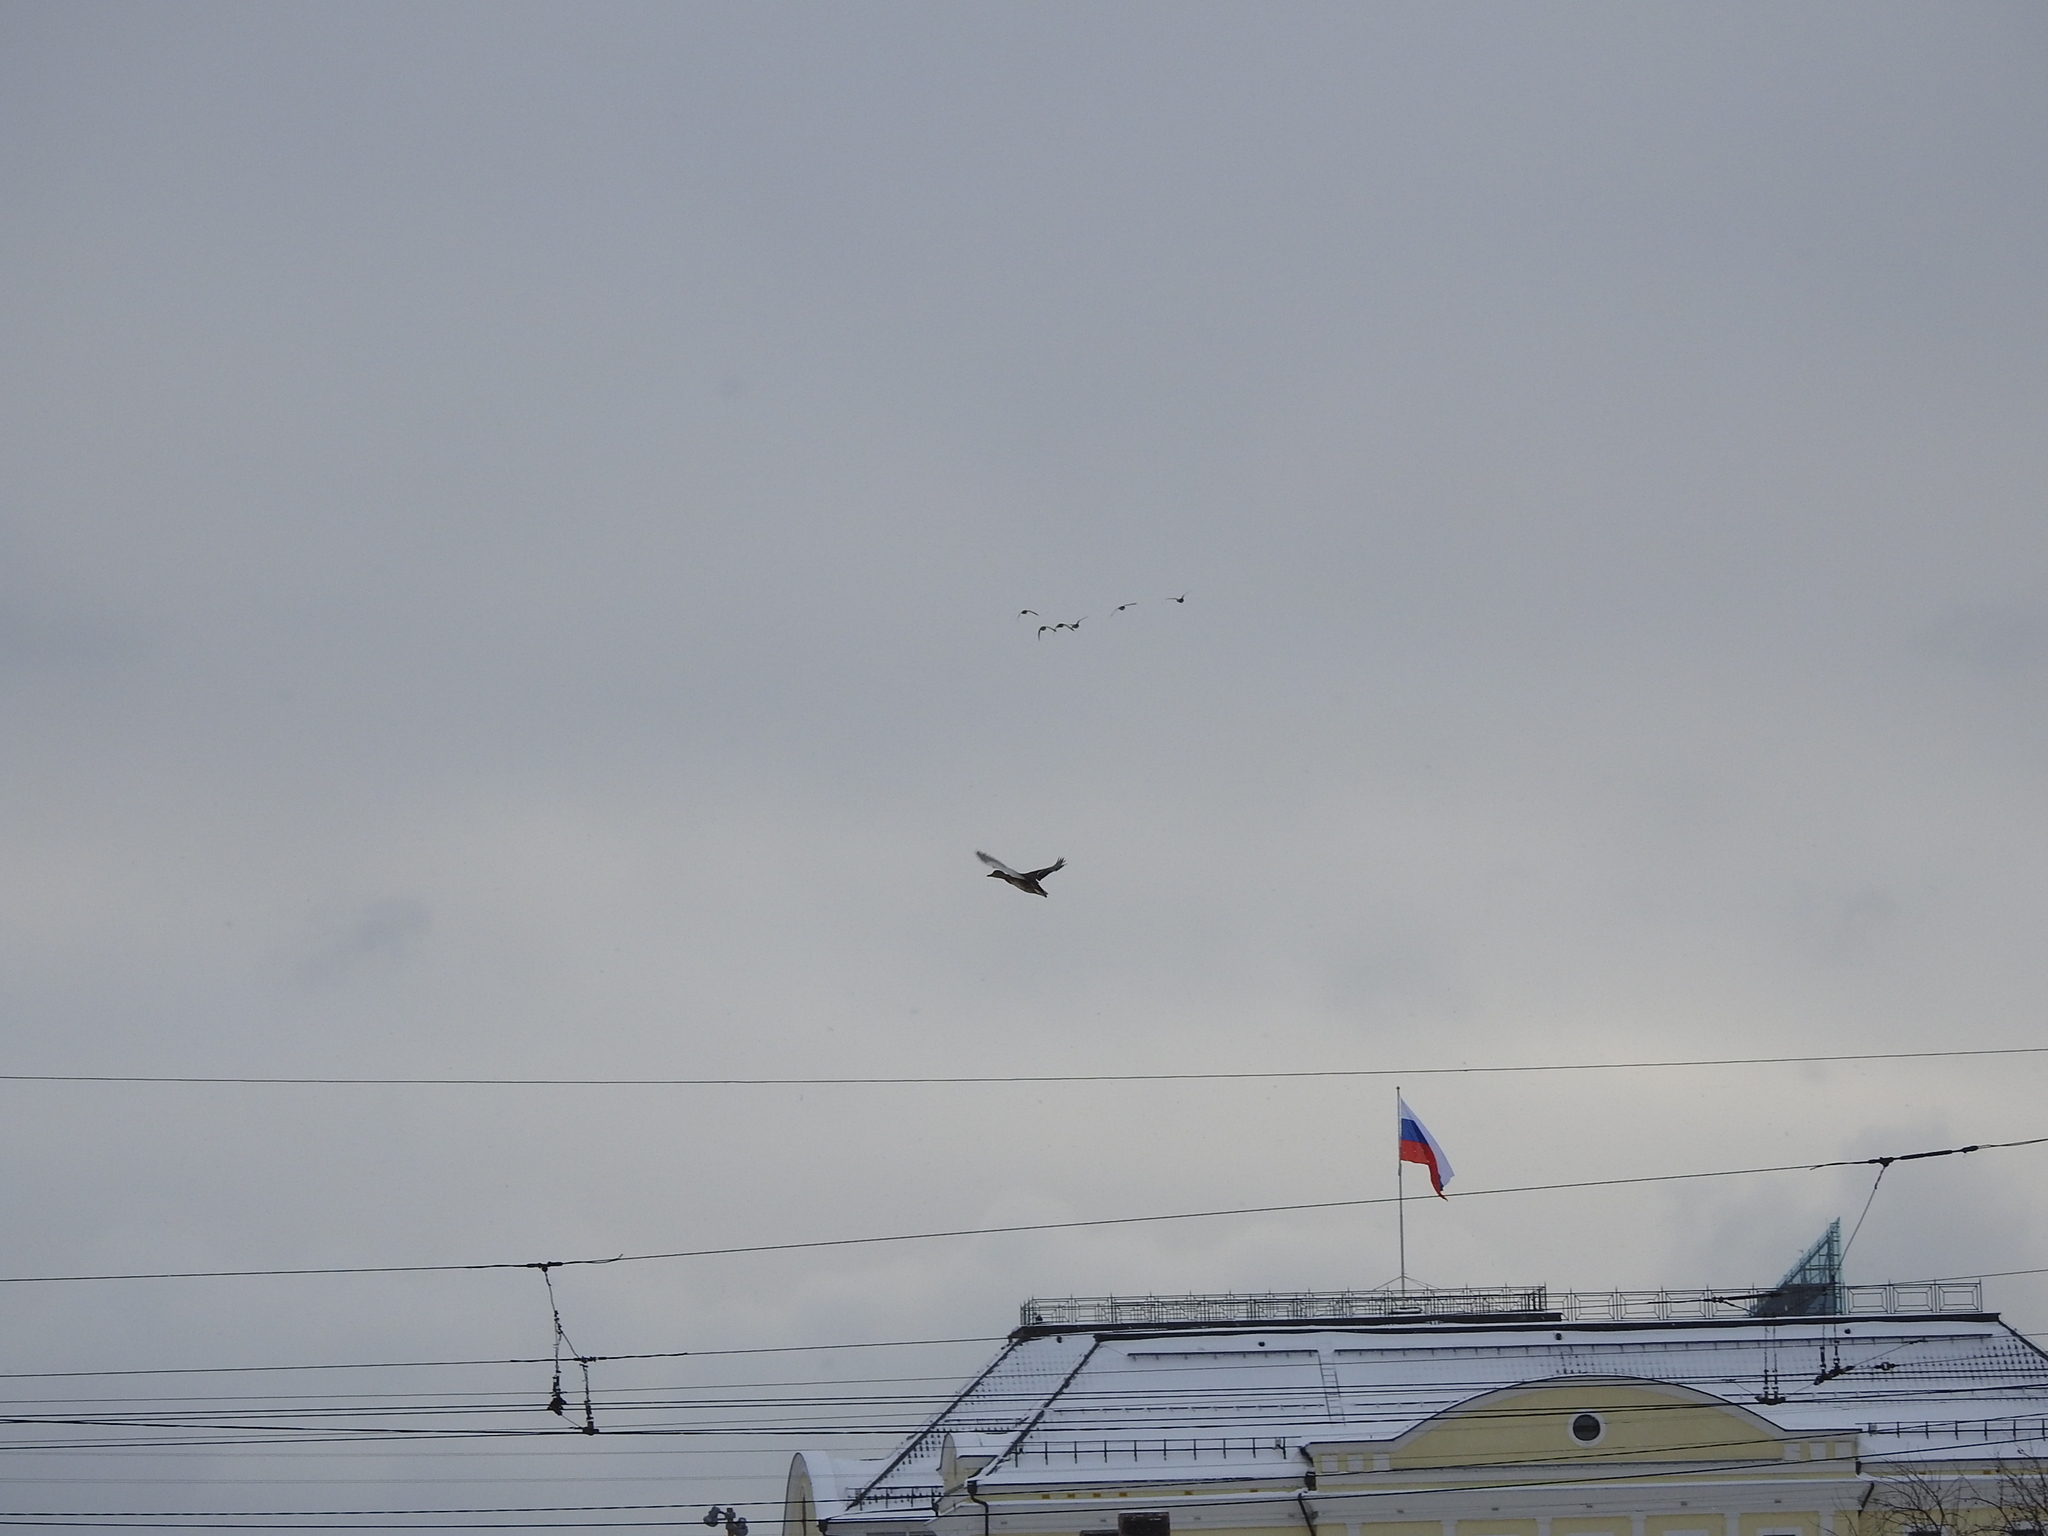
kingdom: Animalia
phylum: Chordata
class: Aves
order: Anseriformes
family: Anatidae
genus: Anas
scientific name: Anas platyrhynchos
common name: Mallard
